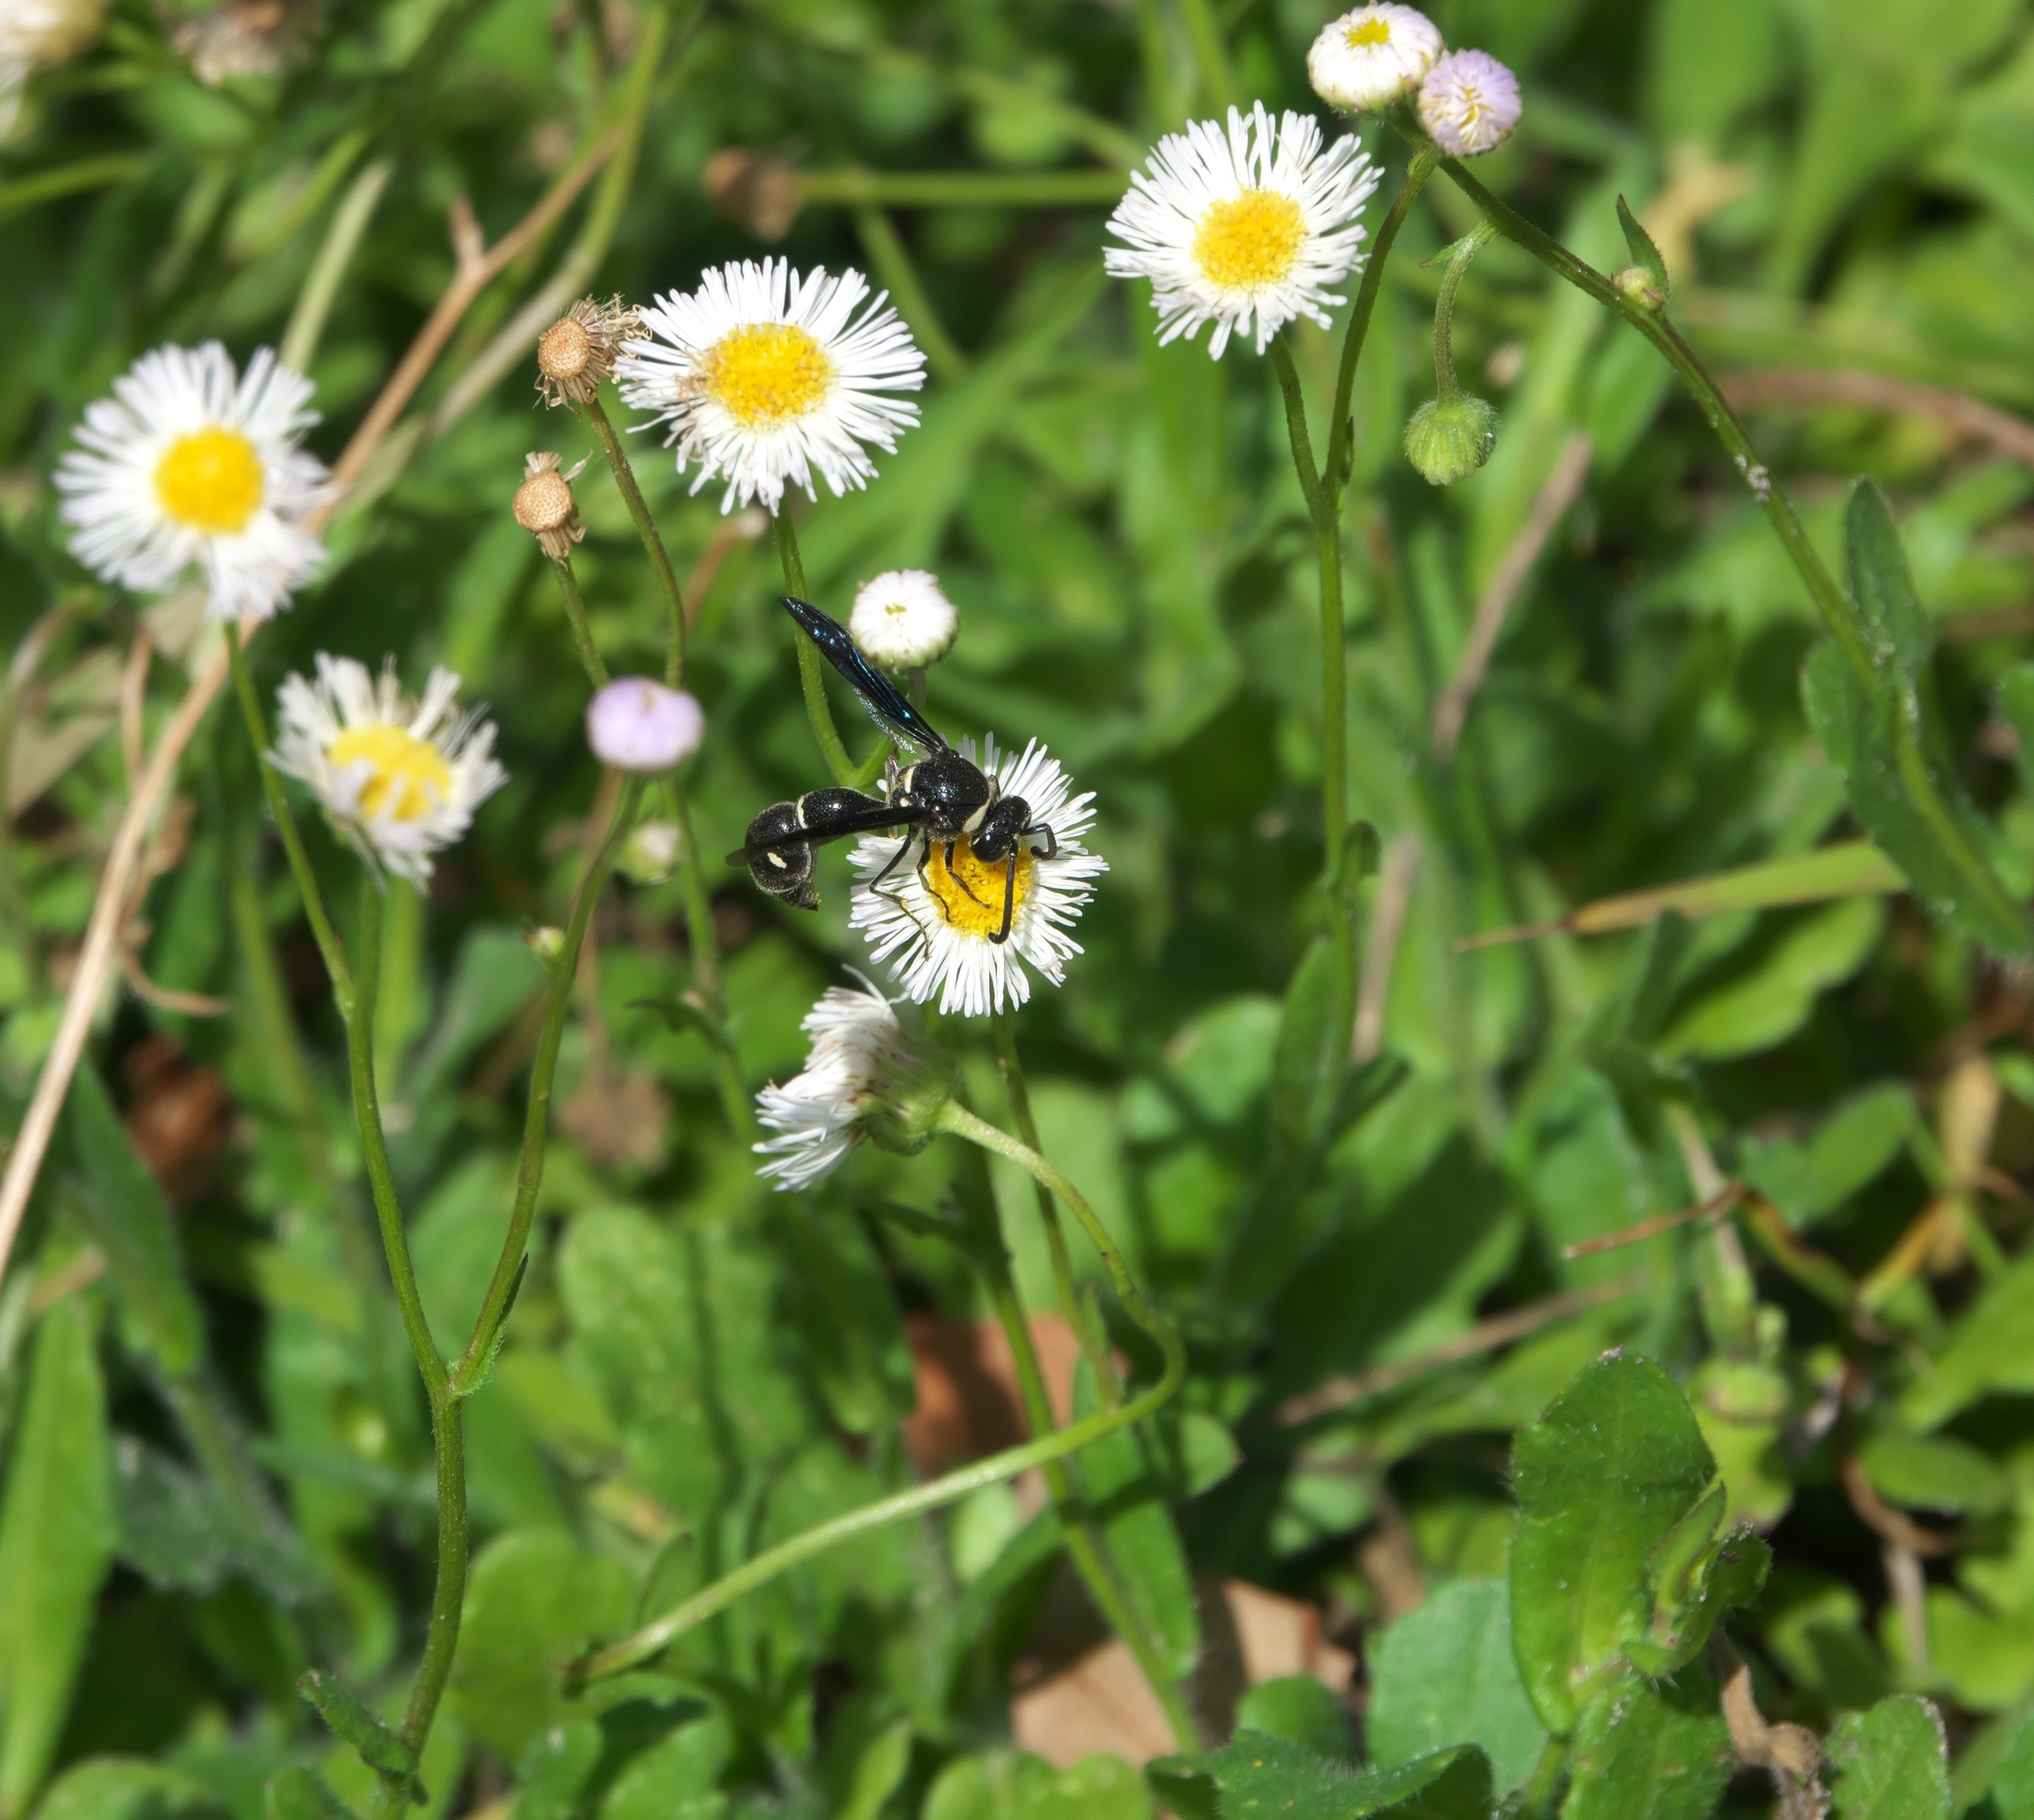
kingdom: Plantae
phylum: Tracheophyta
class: Magnoliopsida
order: Asterales
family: Asteraceae
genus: Erigeron
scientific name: Erigeron quercifolius
